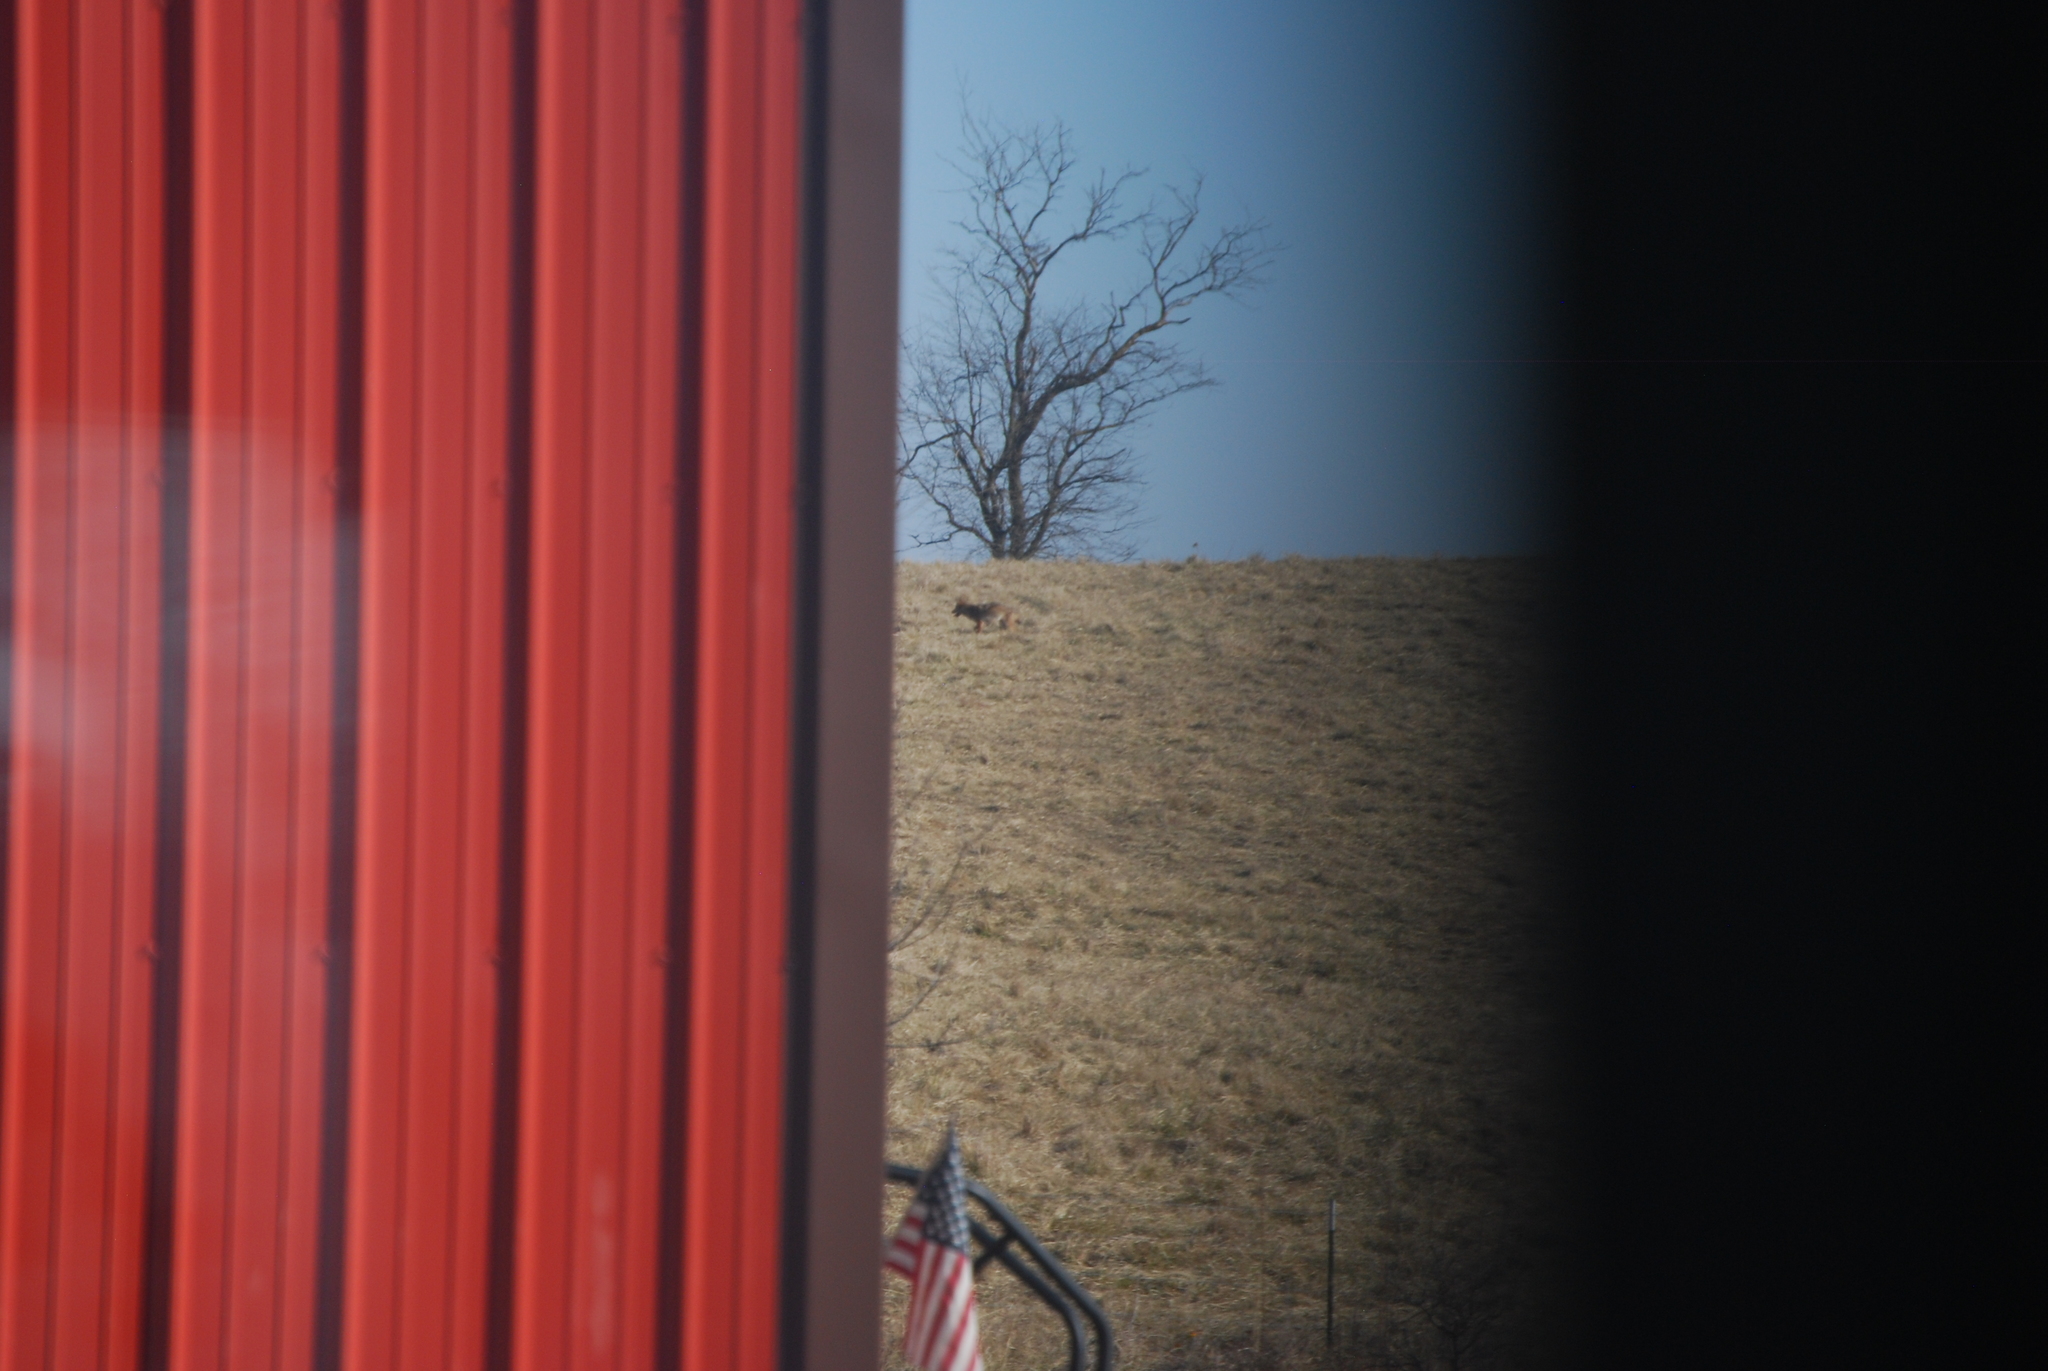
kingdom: Animalia
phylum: Chordata
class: Mammalia
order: Carnivora
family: Canidae
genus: Canis
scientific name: Canis latrans
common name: Coyote
